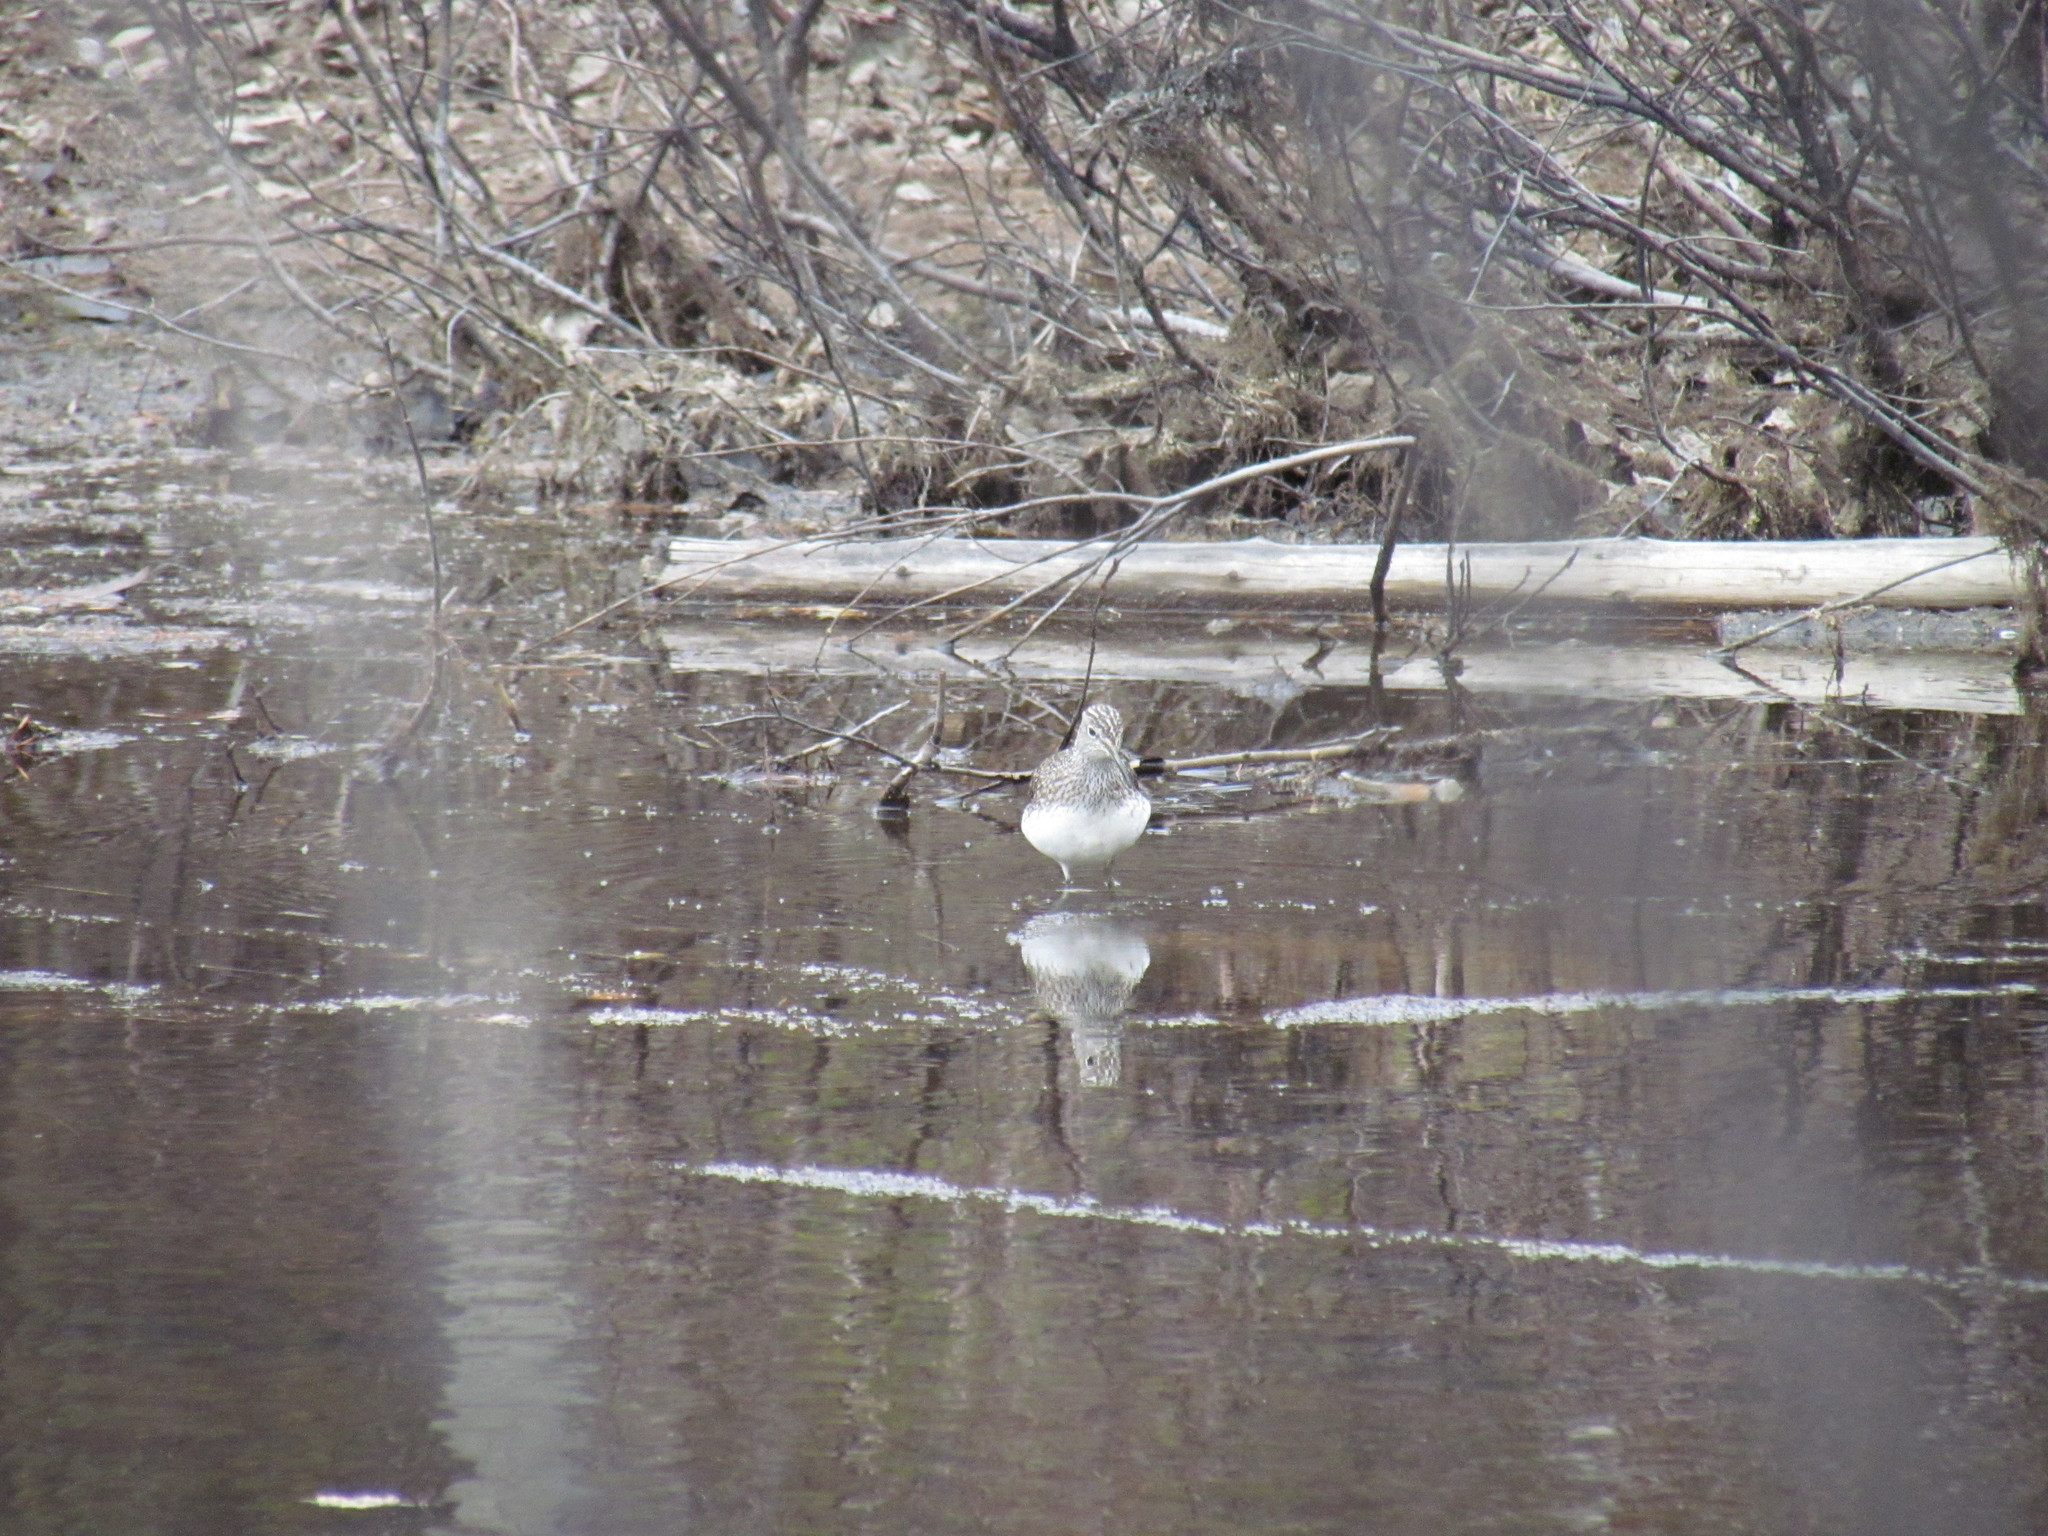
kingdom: Animalia
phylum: Chordata
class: Aves
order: Charadriiformes
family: Scolopacidae
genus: Tringa
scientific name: Tringa ochropus
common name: Green sandpiper
